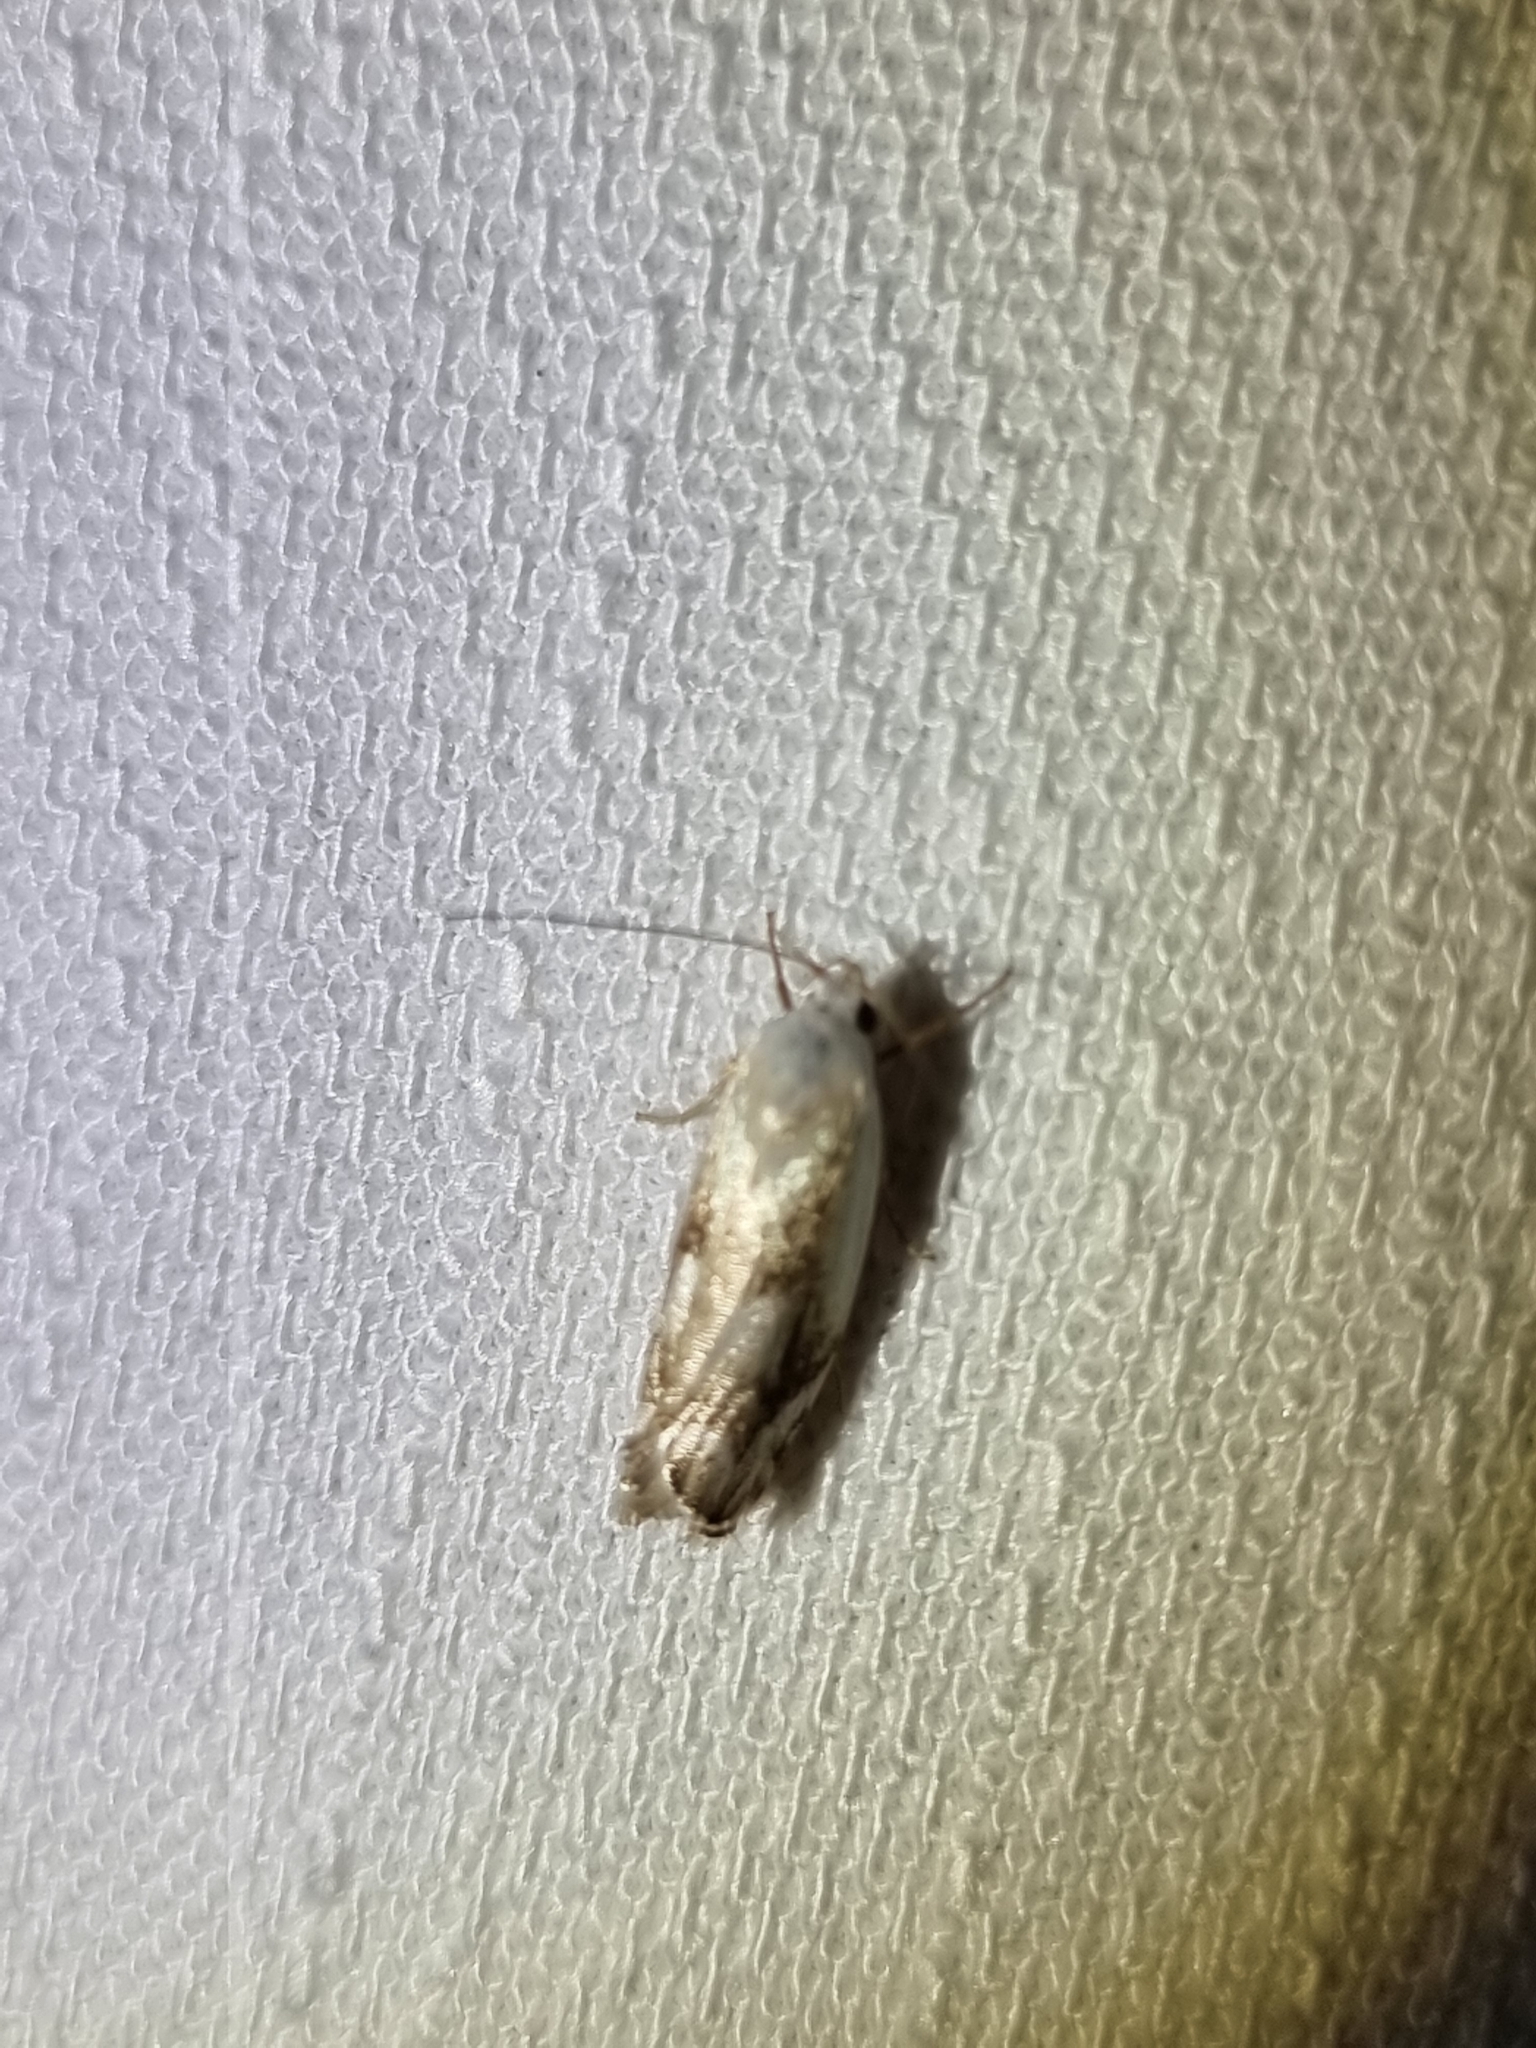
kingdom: Animalia
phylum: Arthropoda
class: Insecta
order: Lepidoptera
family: Xyloryctidae
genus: Plectophila
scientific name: Plectophila discalis
